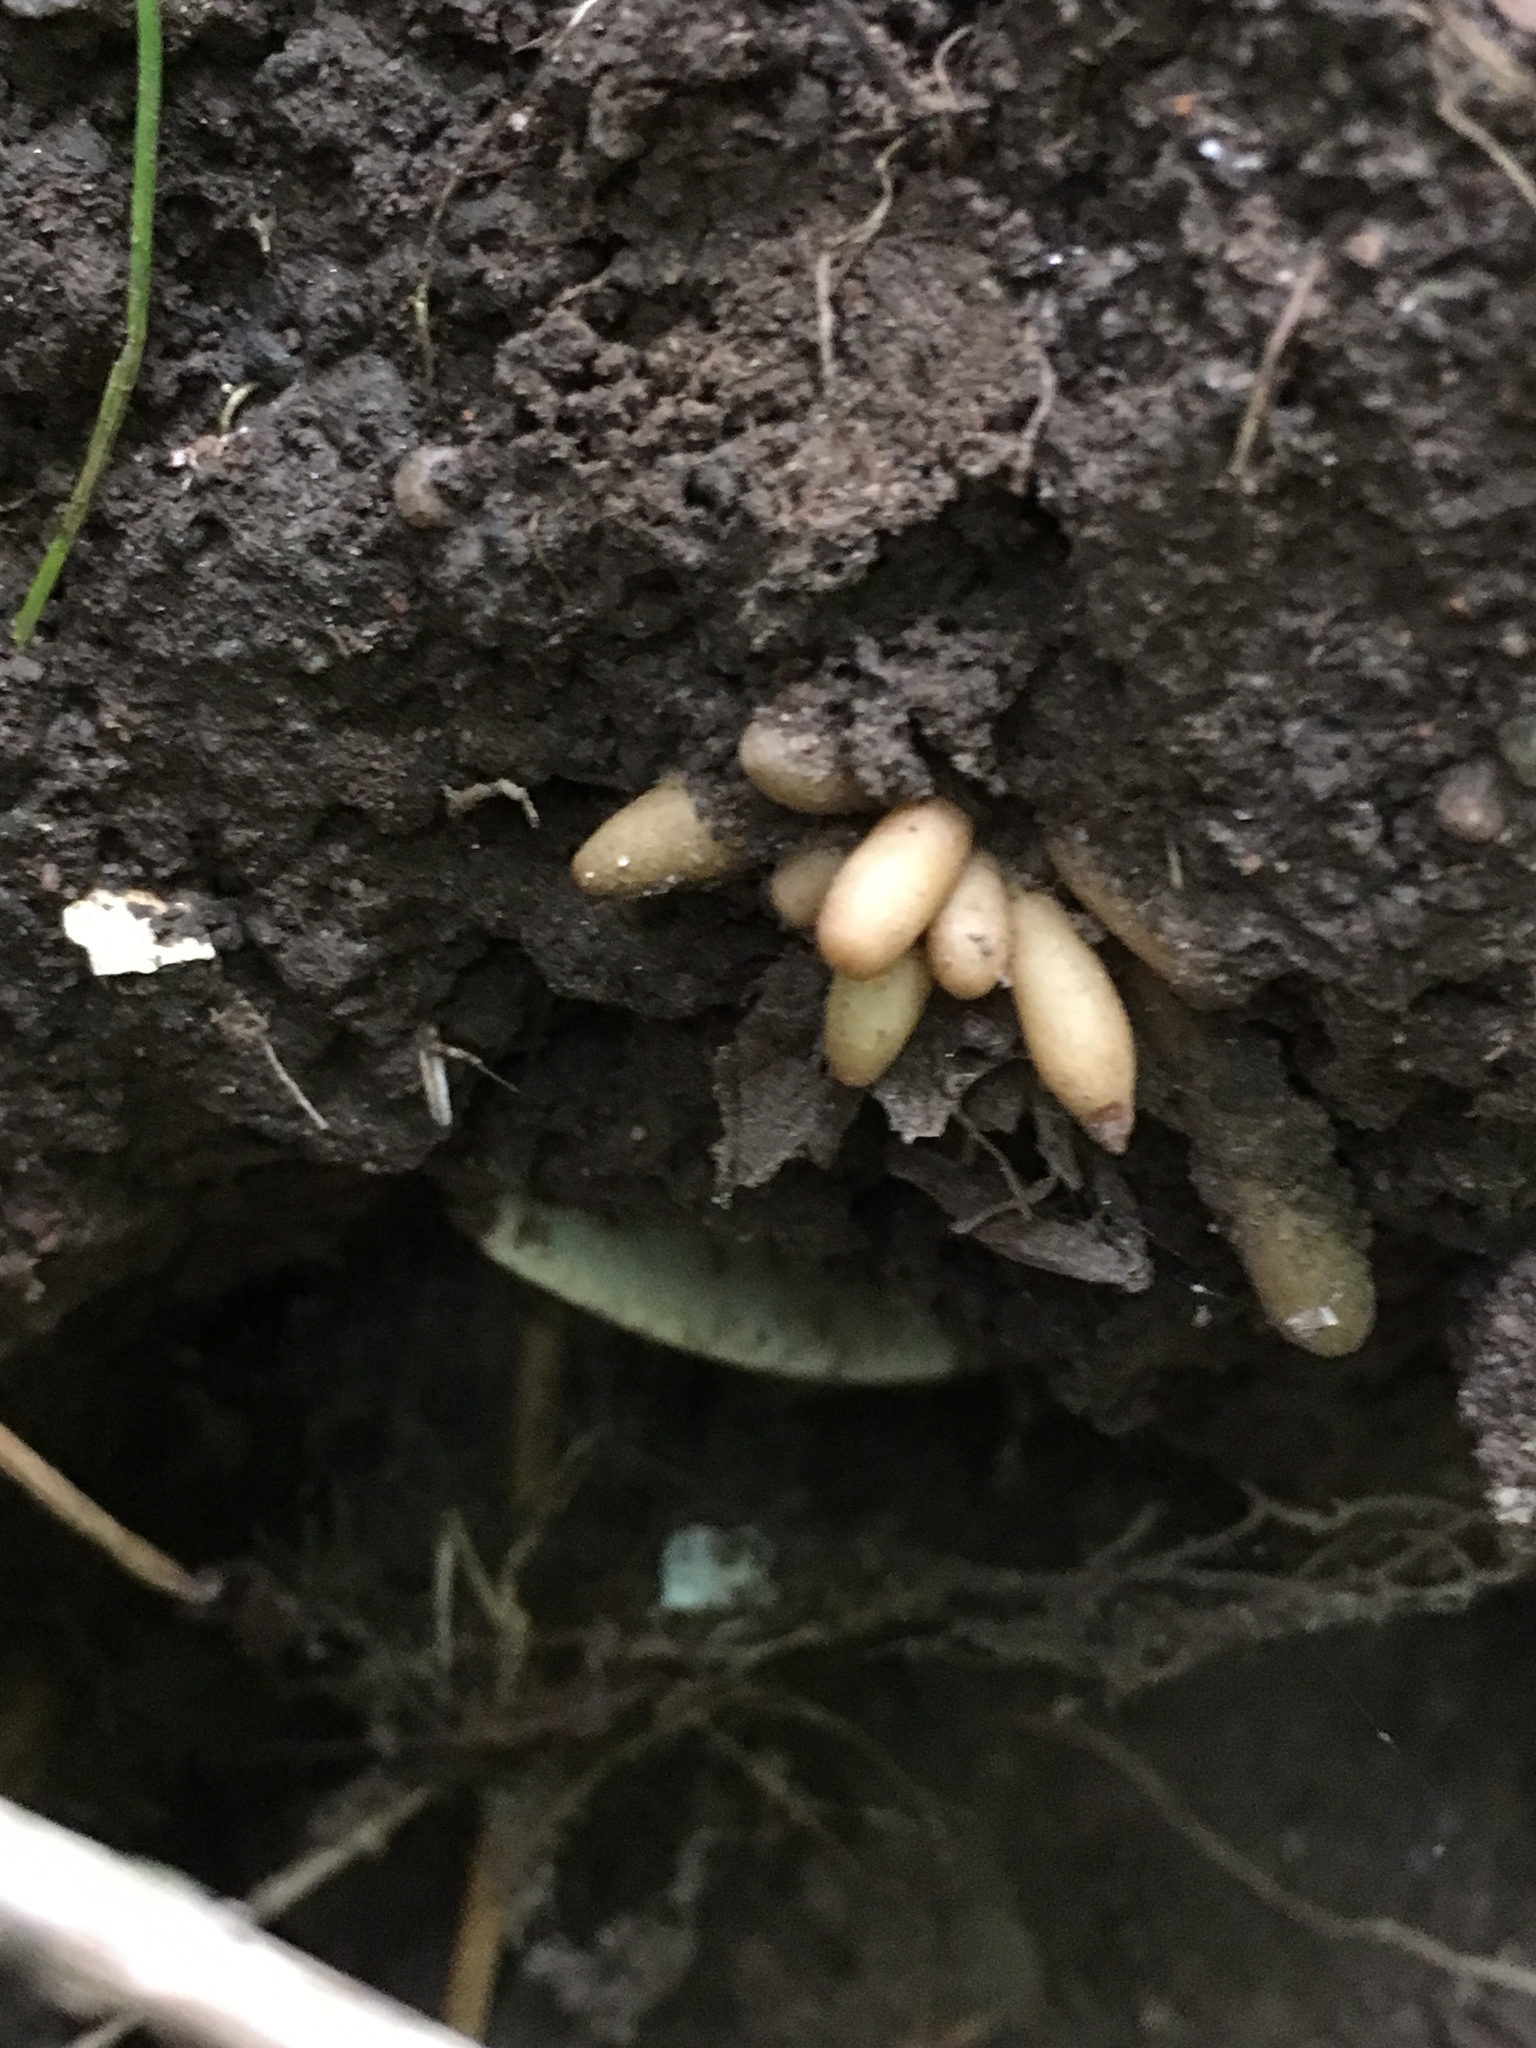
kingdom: Plantae
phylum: Tracheophyta
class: Magnoliopsida
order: Ranunculales
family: Ranunculaceae
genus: Ficaria
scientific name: Ficaria verna
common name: Lesser celandine
